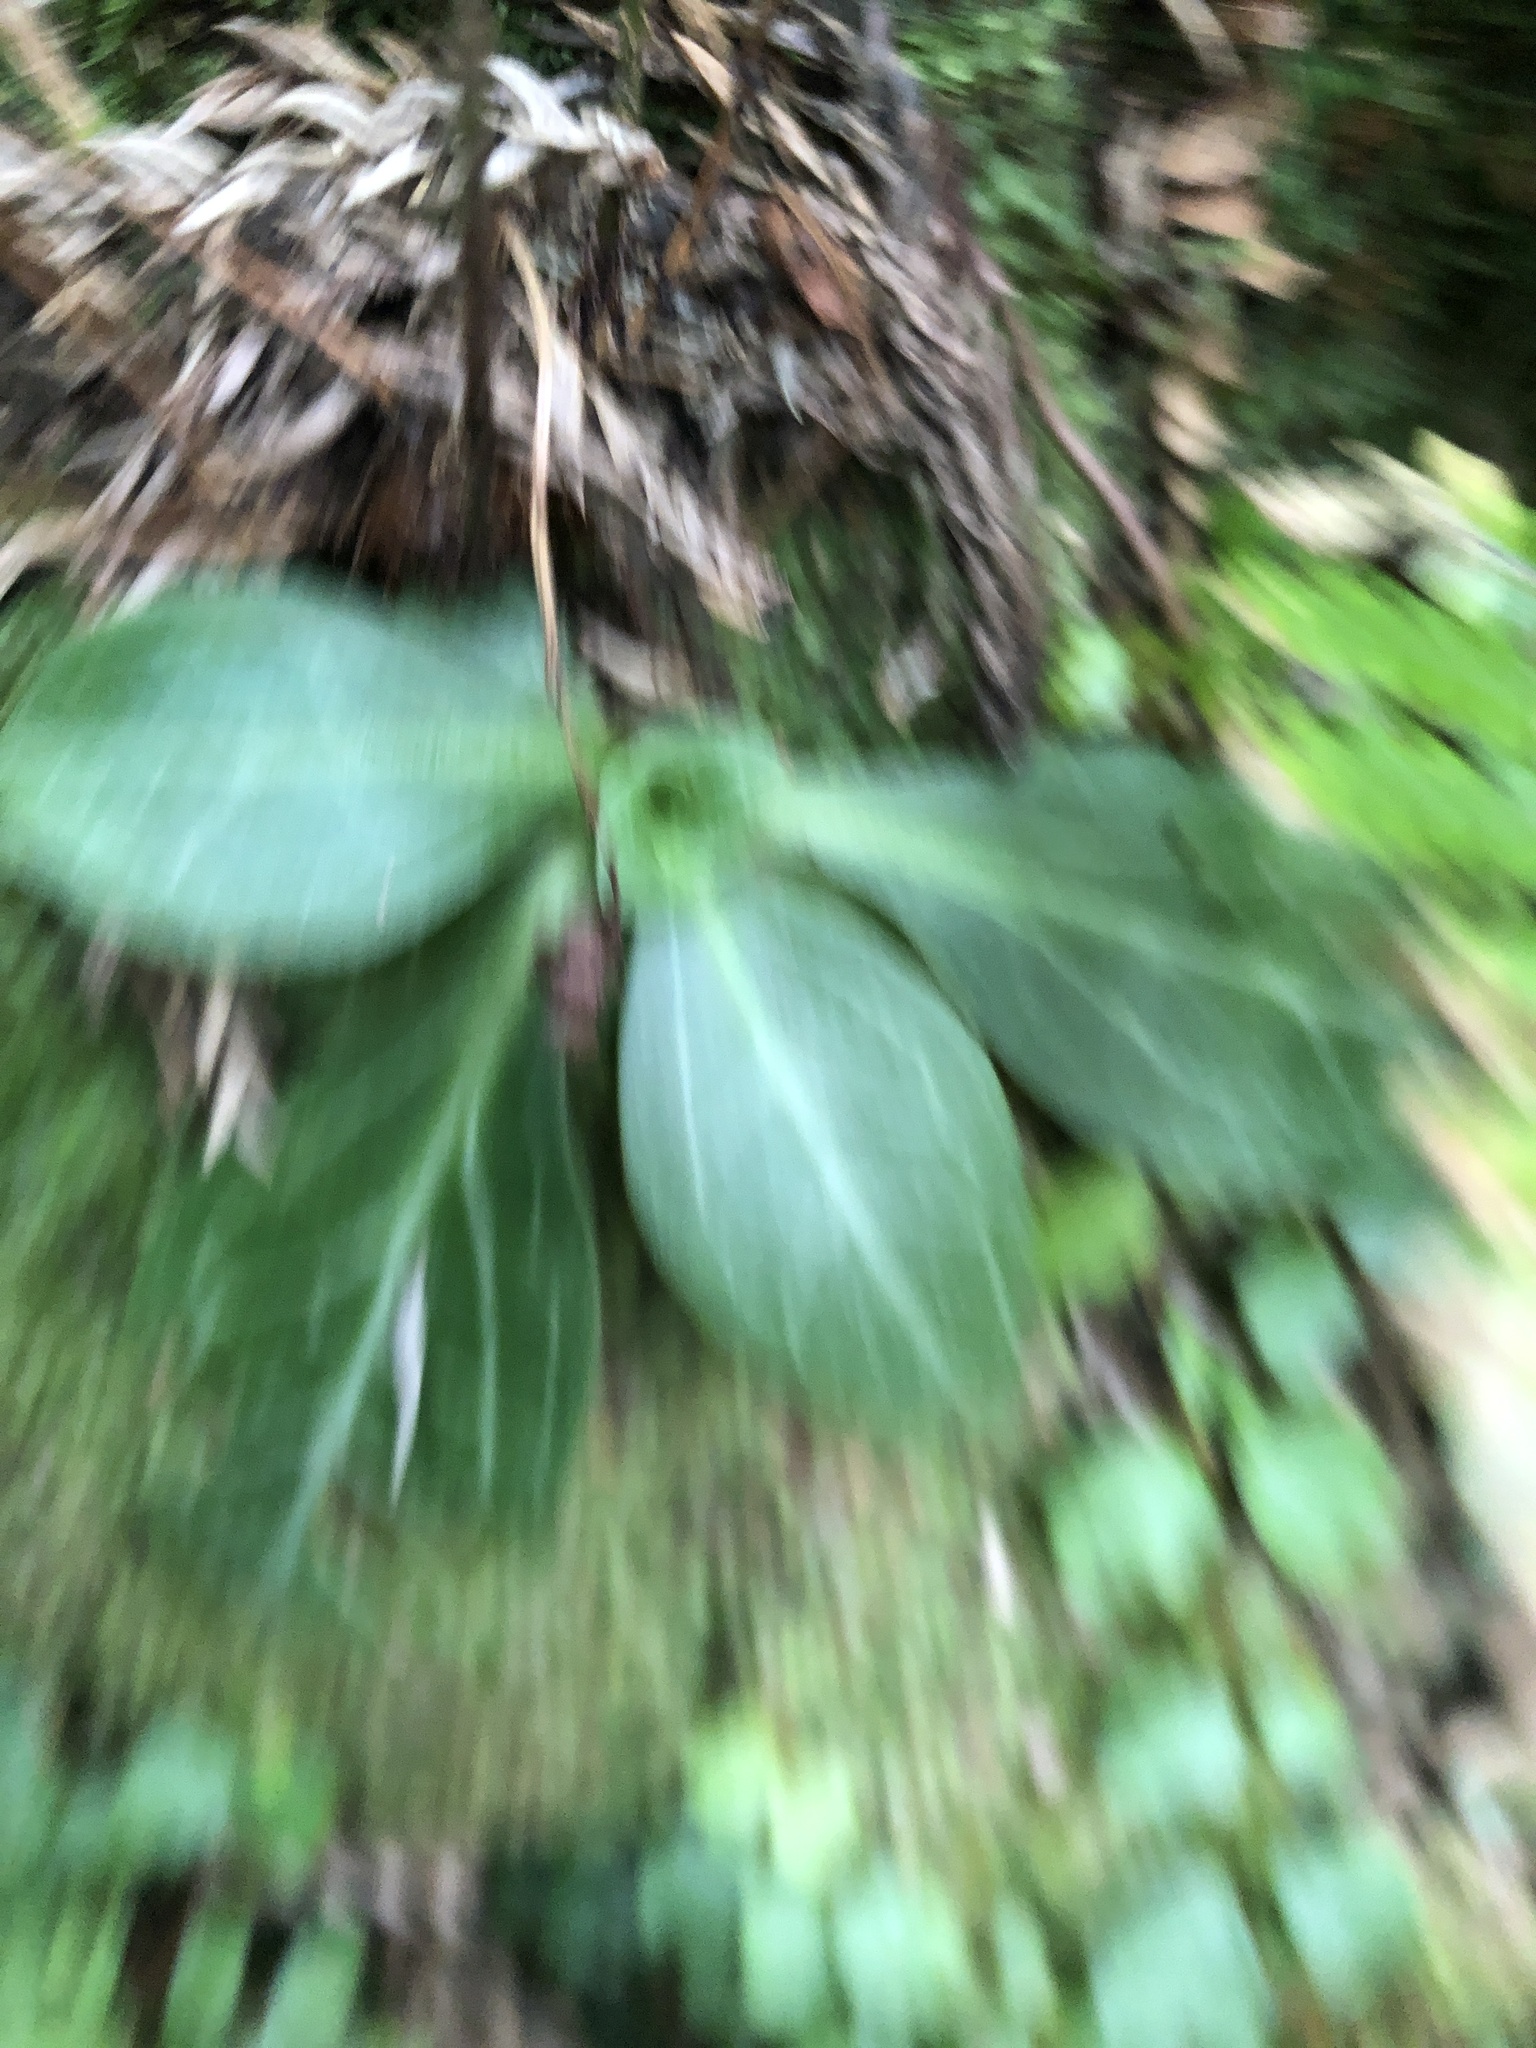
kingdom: Plantae
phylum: Tracheophyta
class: Magnoliopsida
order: Gentianales
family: Gentianaceae
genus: Swertia
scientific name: Swertia shintenensis
